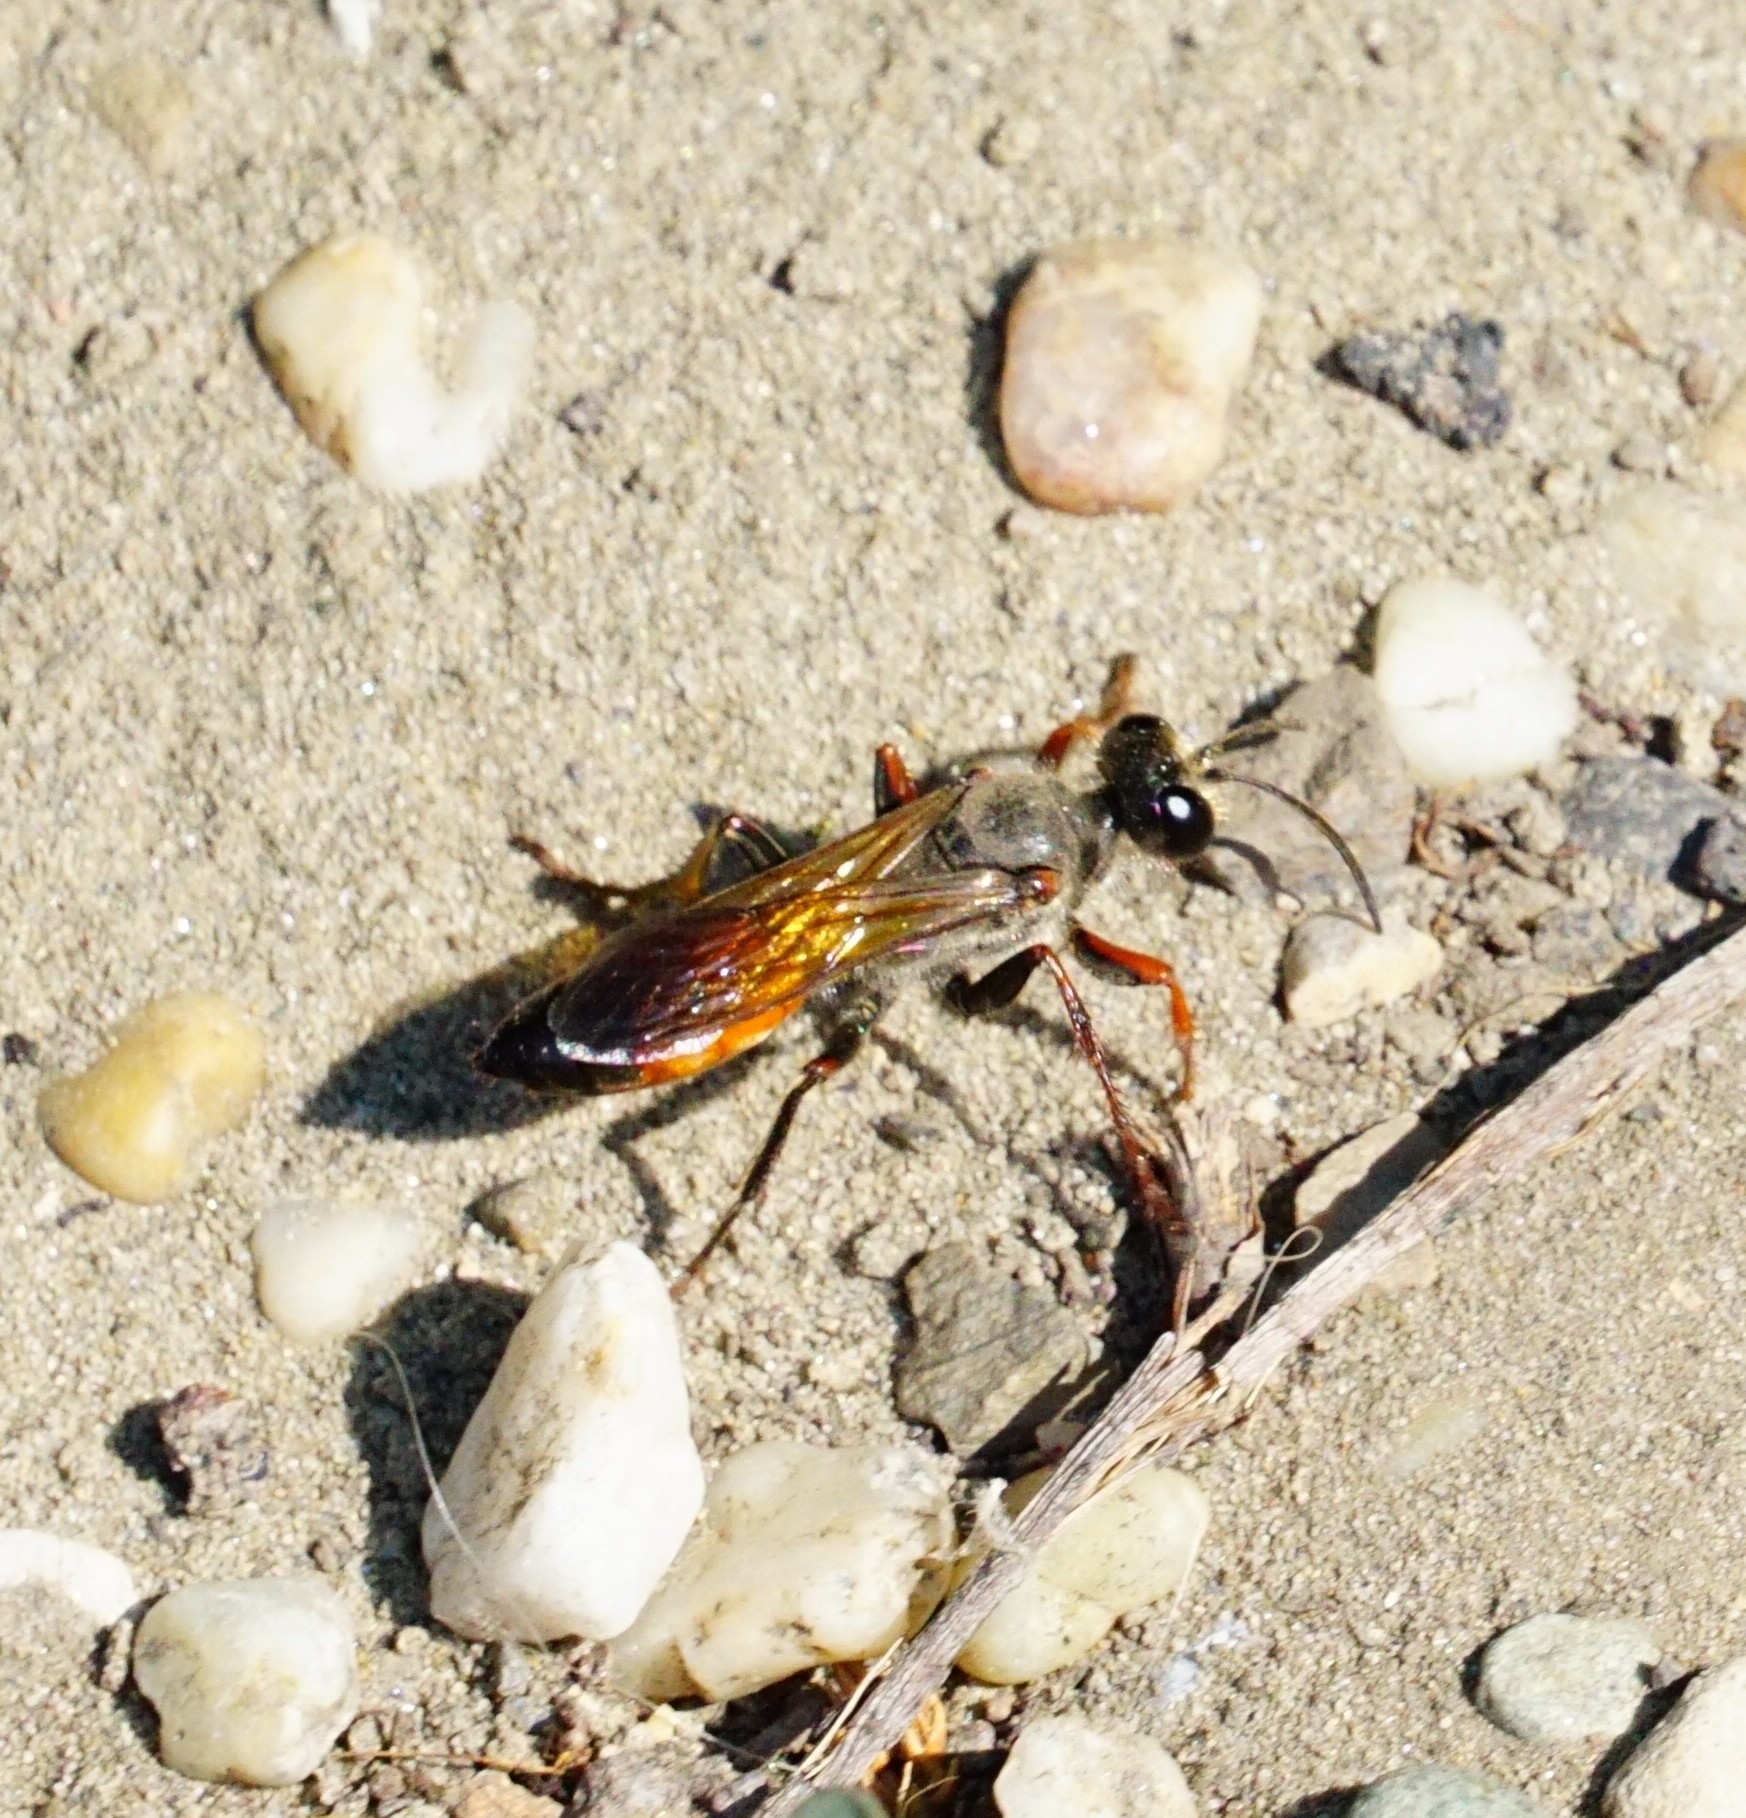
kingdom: Animalia
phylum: Arthropoda
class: Insecta
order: Hymenoptera
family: Sphecidae
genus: Sphex
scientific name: Sphex funerarius
